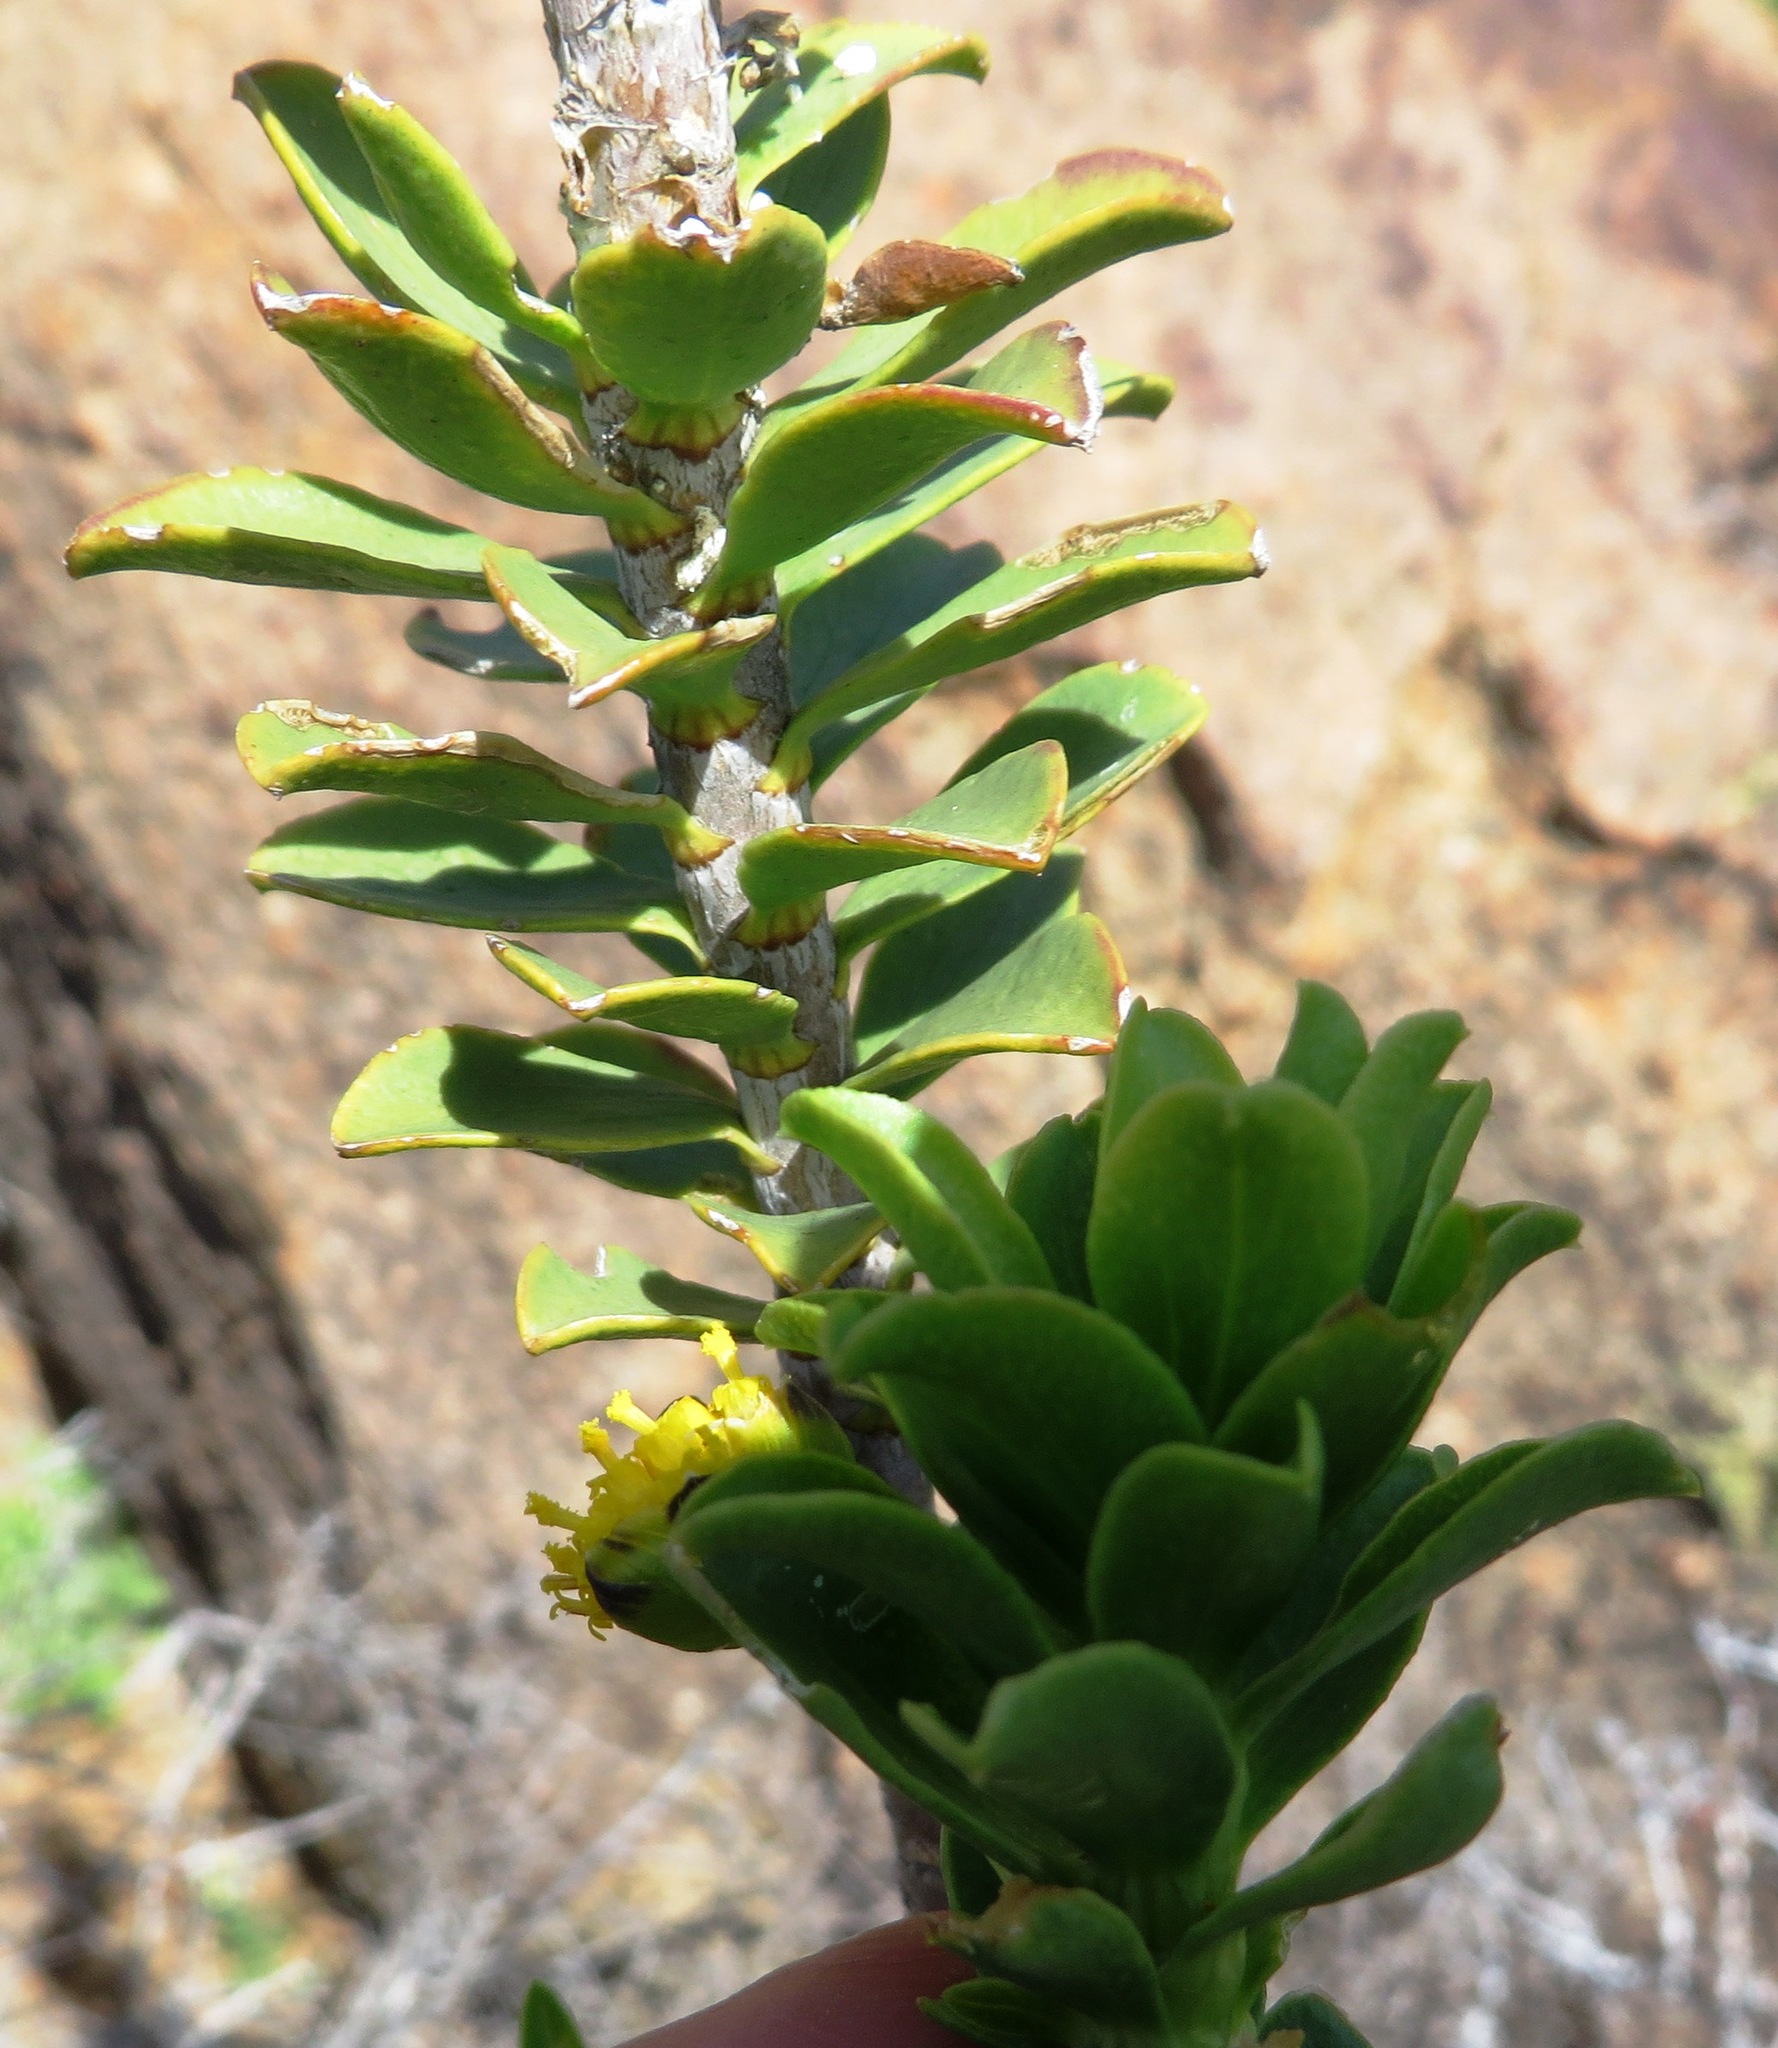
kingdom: Plantae
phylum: Tracheophyta
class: Magnoliopsida
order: Asterales
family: Asteraceae
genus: Euryops
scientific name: Euryops lateriflorus
